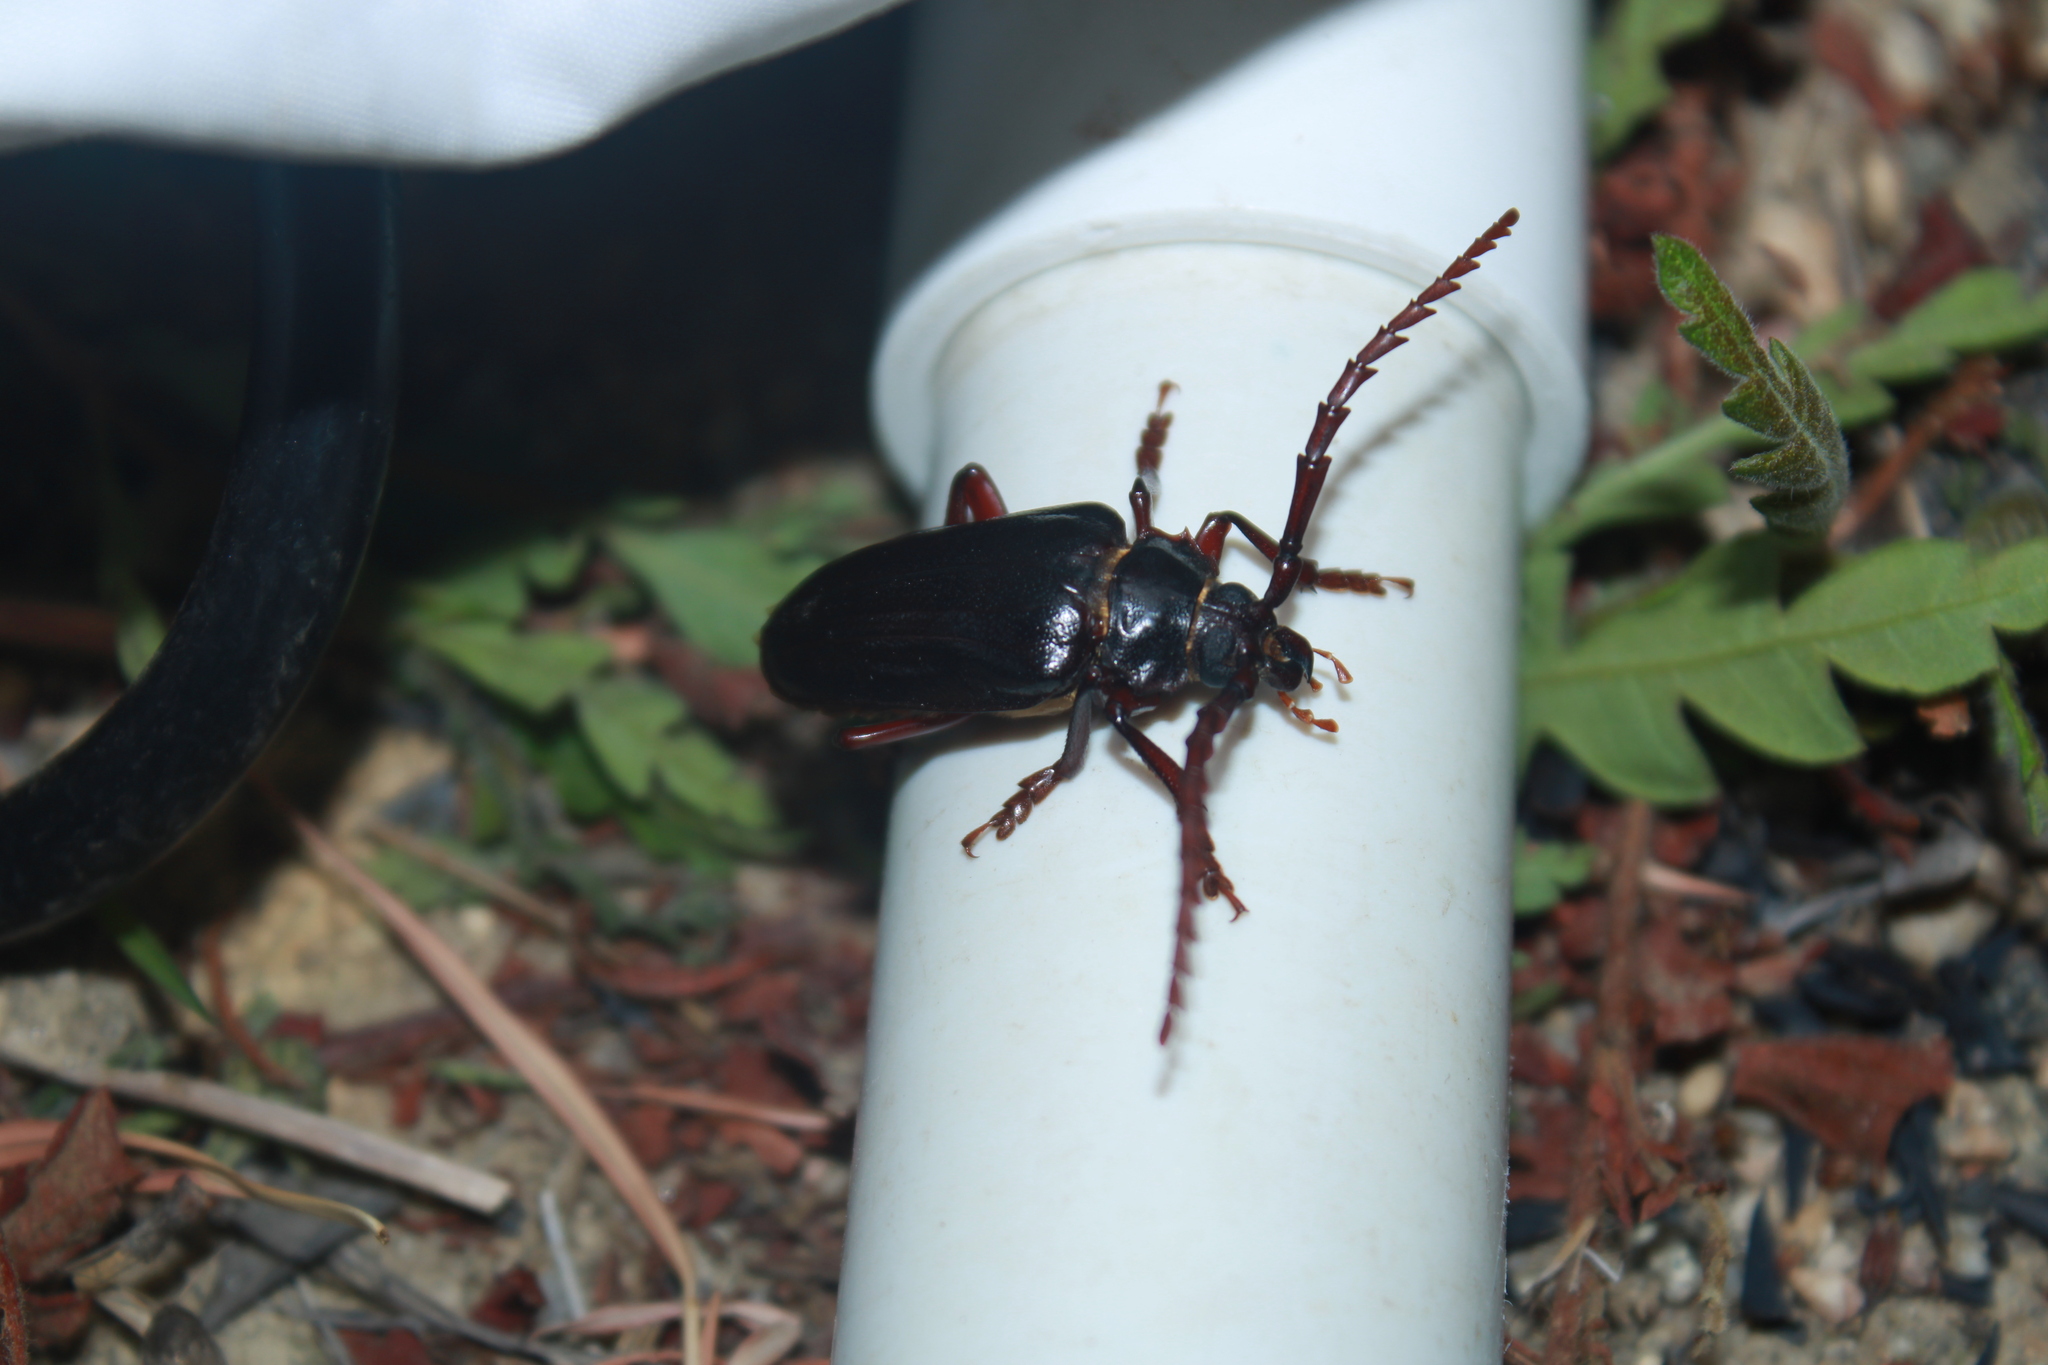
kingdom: Animalia
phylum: Arthropoda
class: Insecta
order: Coleoptera
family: Cerambycidae
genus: Prionus
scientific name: Prionus pocularis
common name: Tooth-necked longhorn beetle
